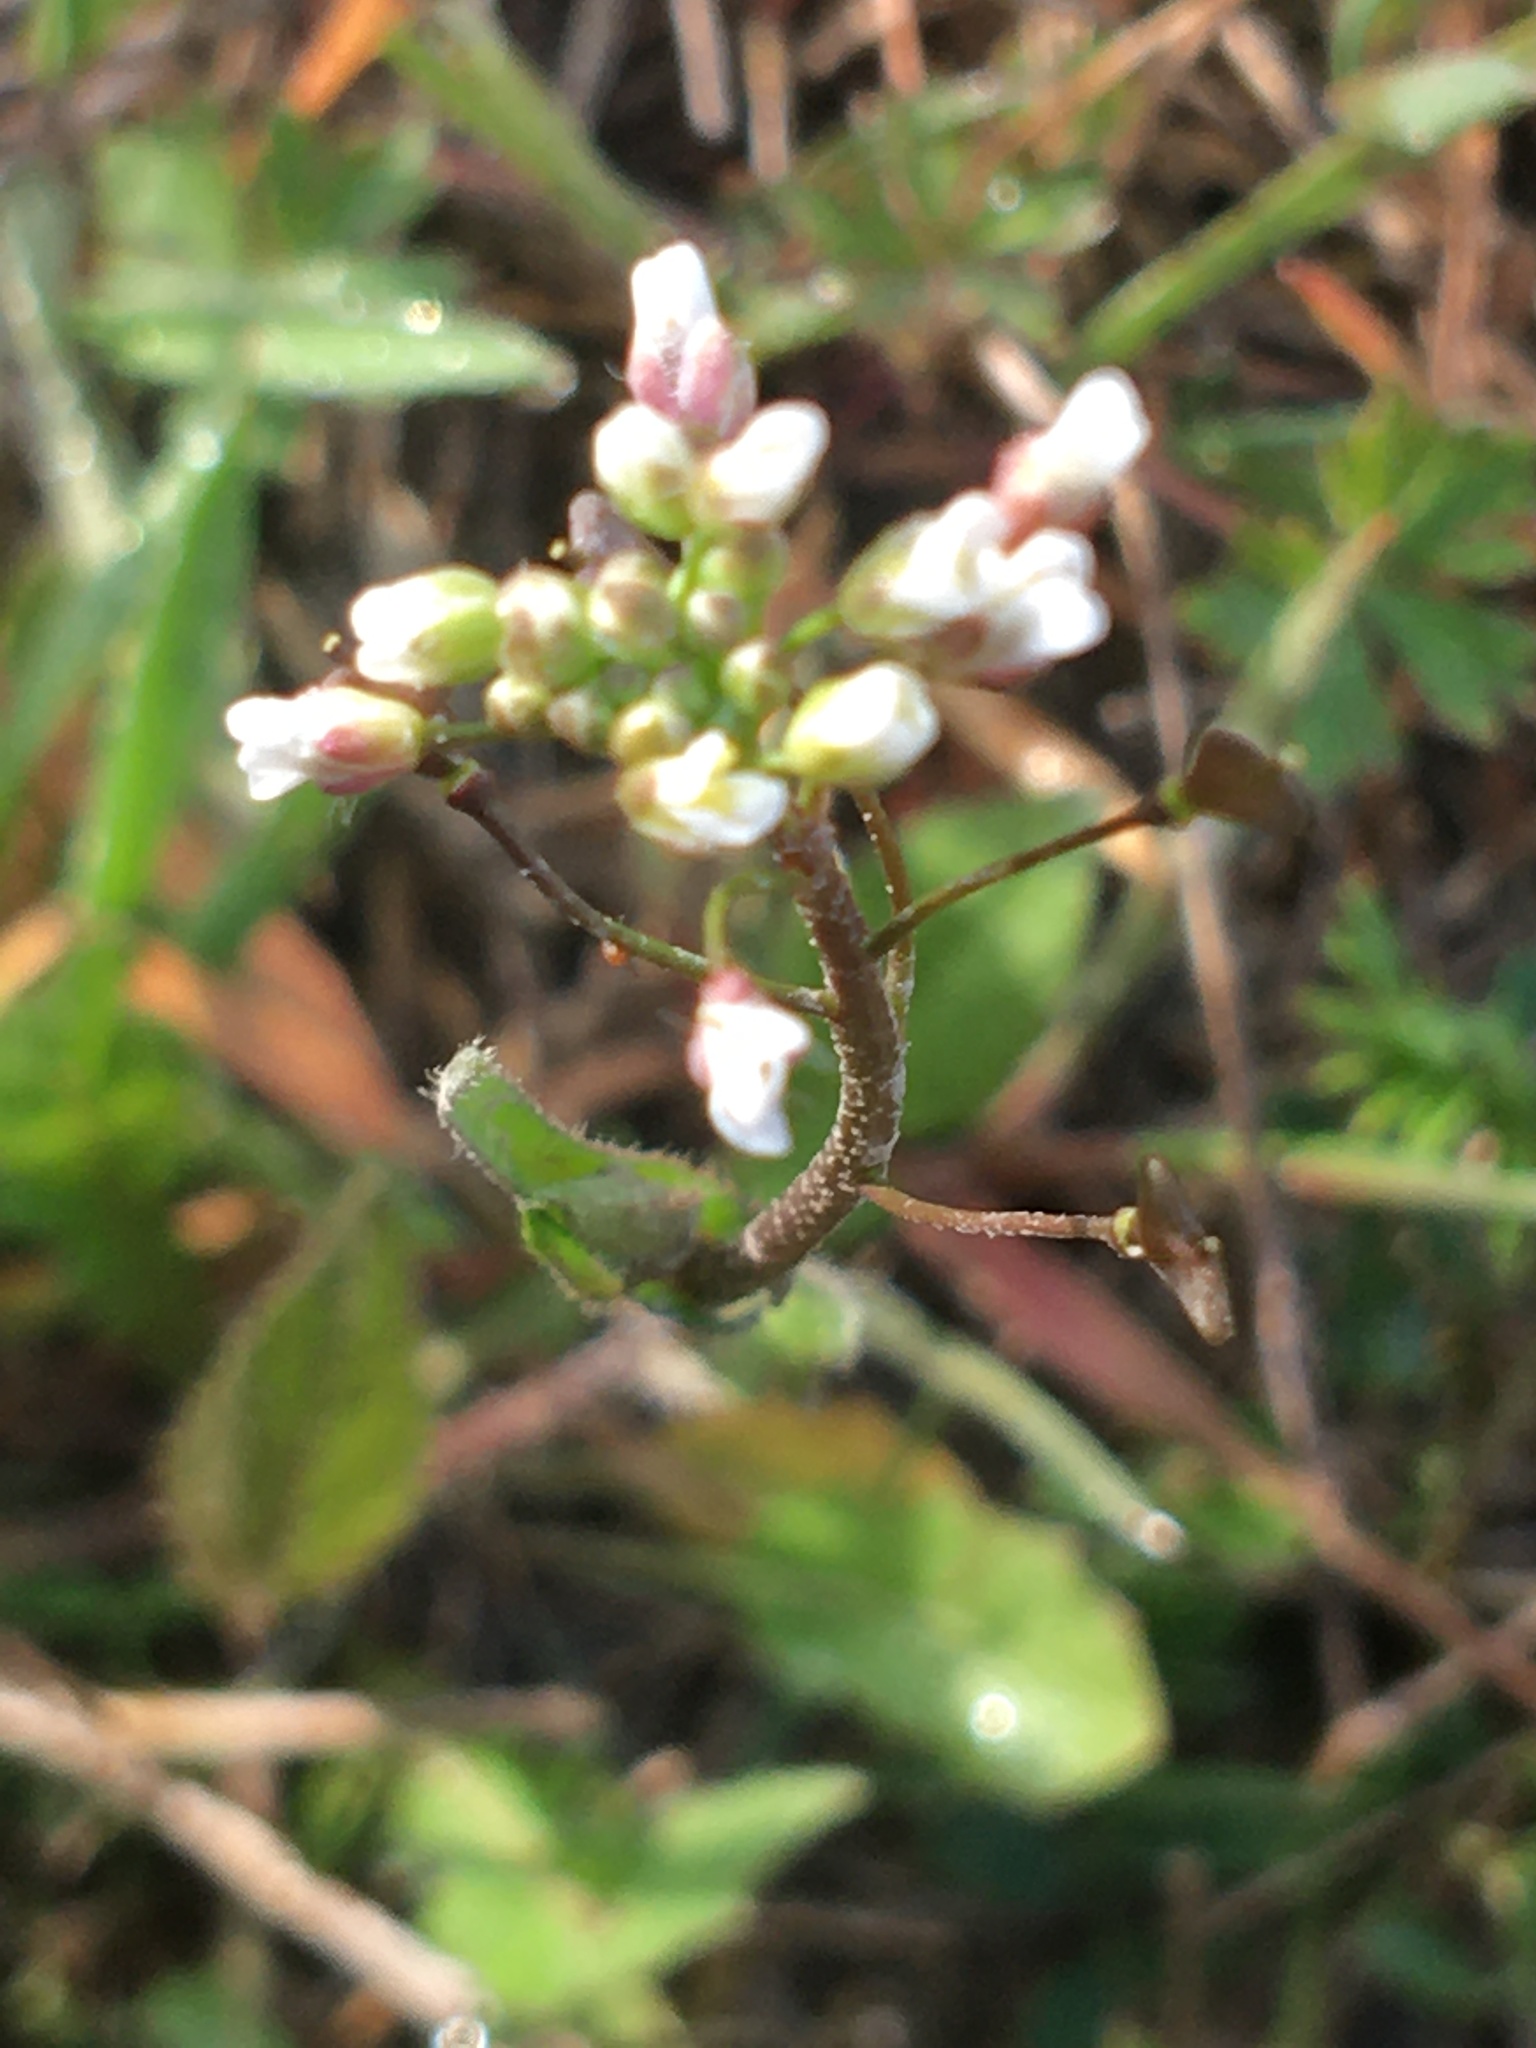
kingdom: Plantae
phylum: Tracheophyta
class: Magnoliopsida
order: Brassicales
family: Brassicaceae
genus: Capsella
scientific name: Capsella bursa-pastoris
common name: Shepherd's purse
